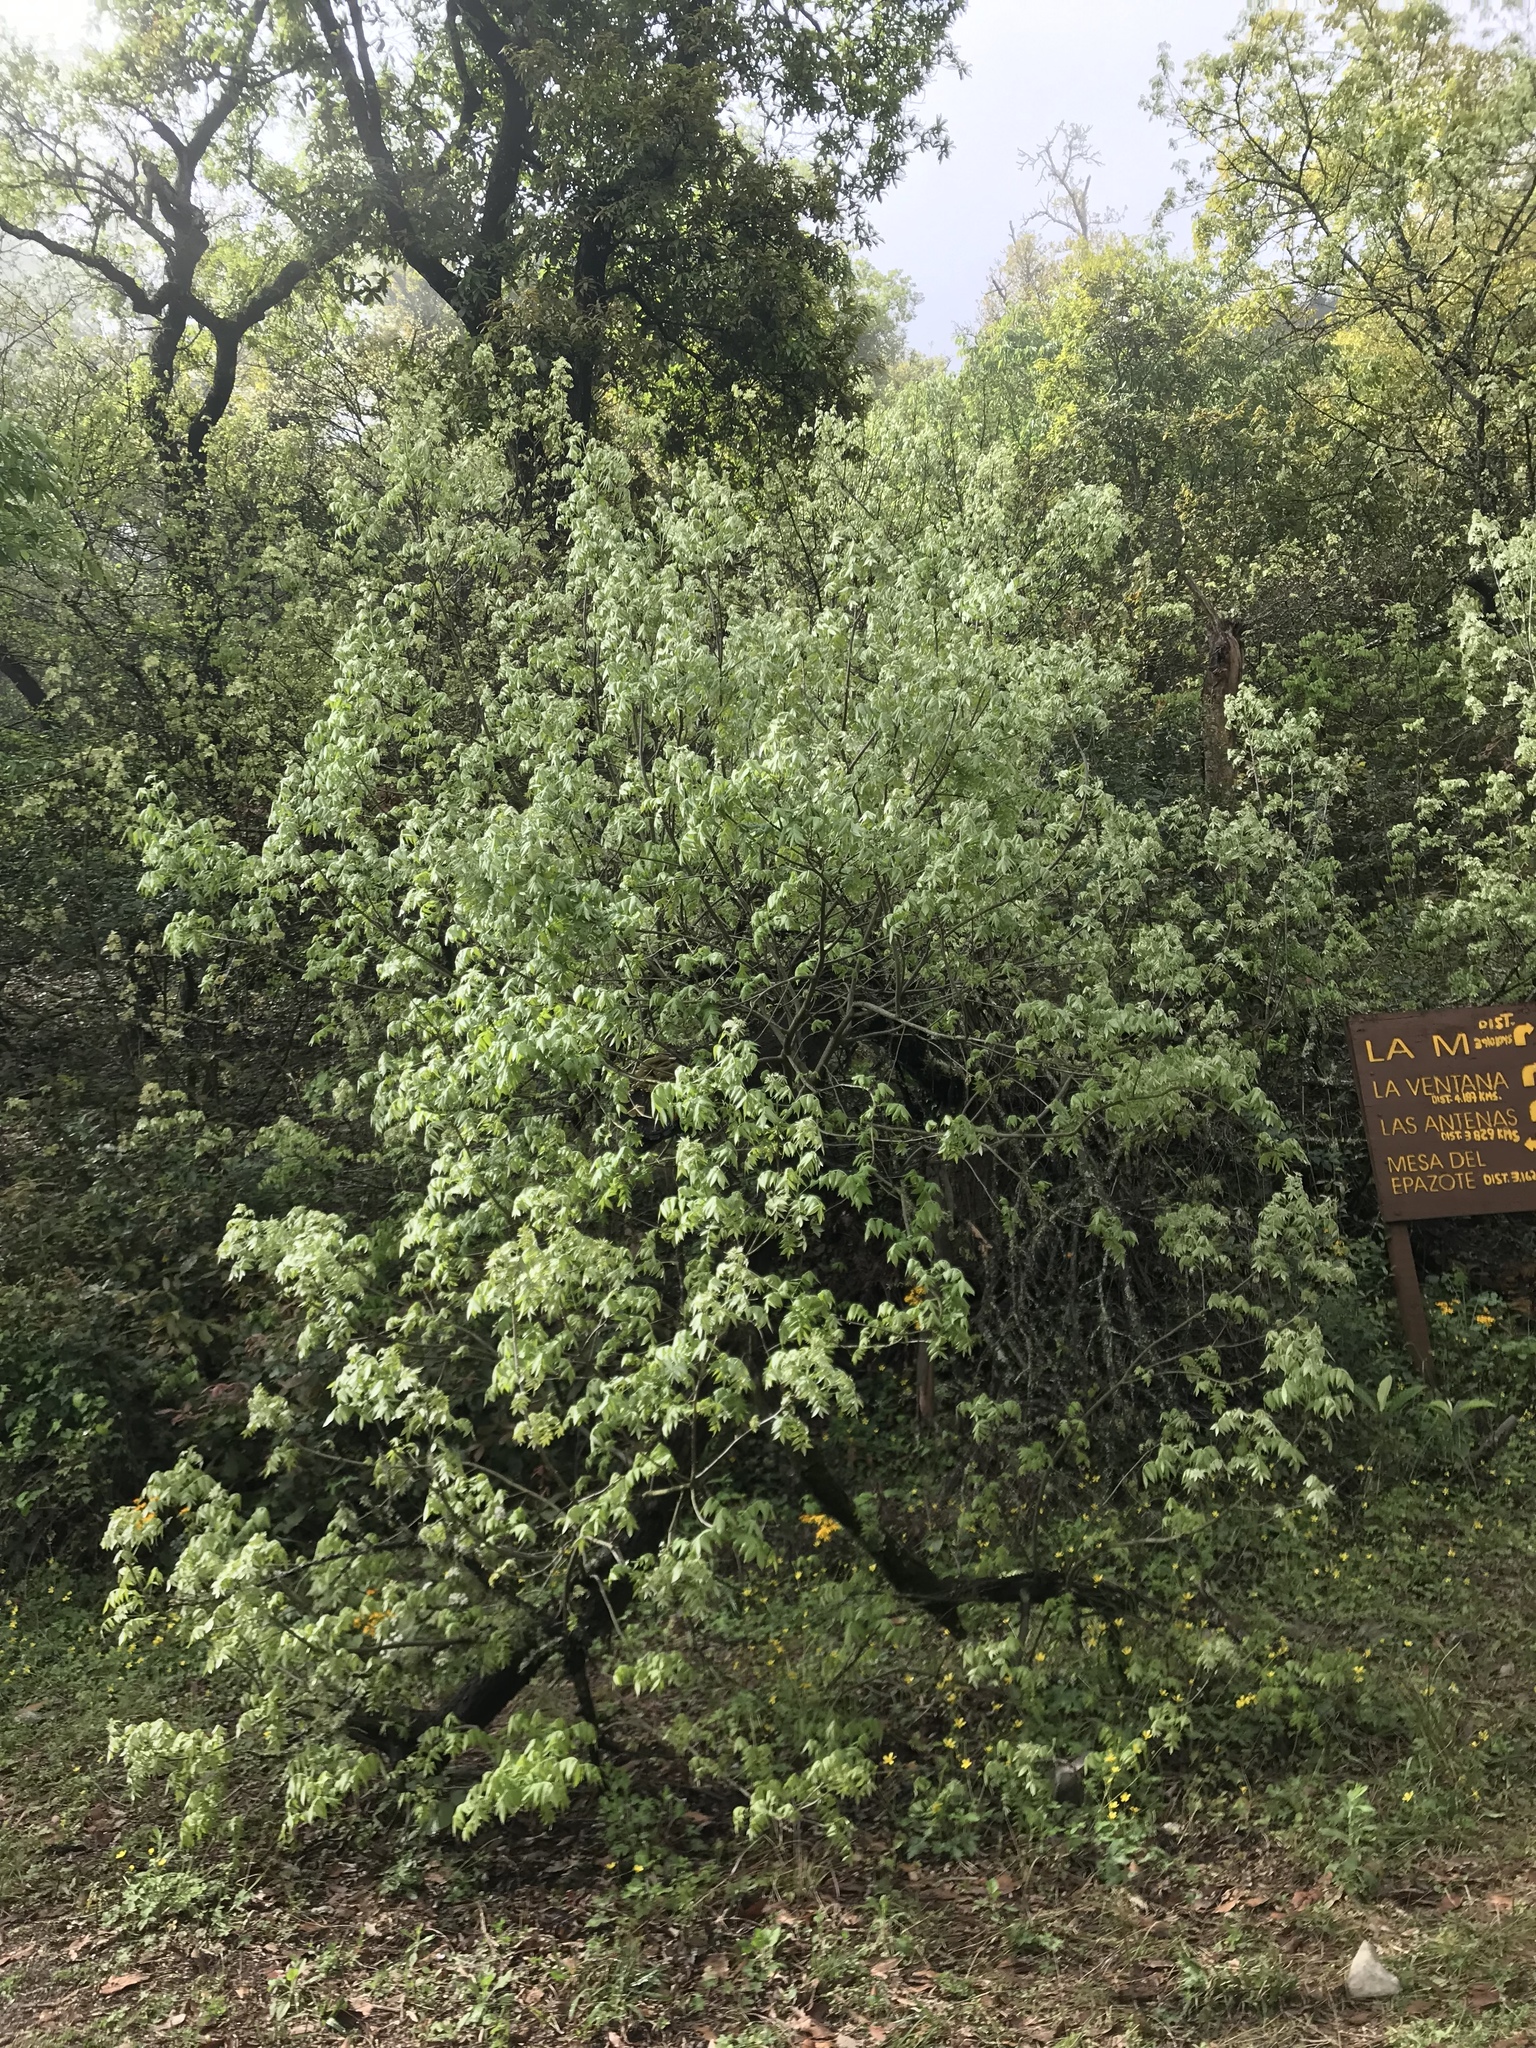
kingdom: Plantae
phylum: Tracheophyta
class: Magnoliopsida
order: Fagales
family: Juglandaceae
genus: Juglans
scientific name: Juglans mollis
